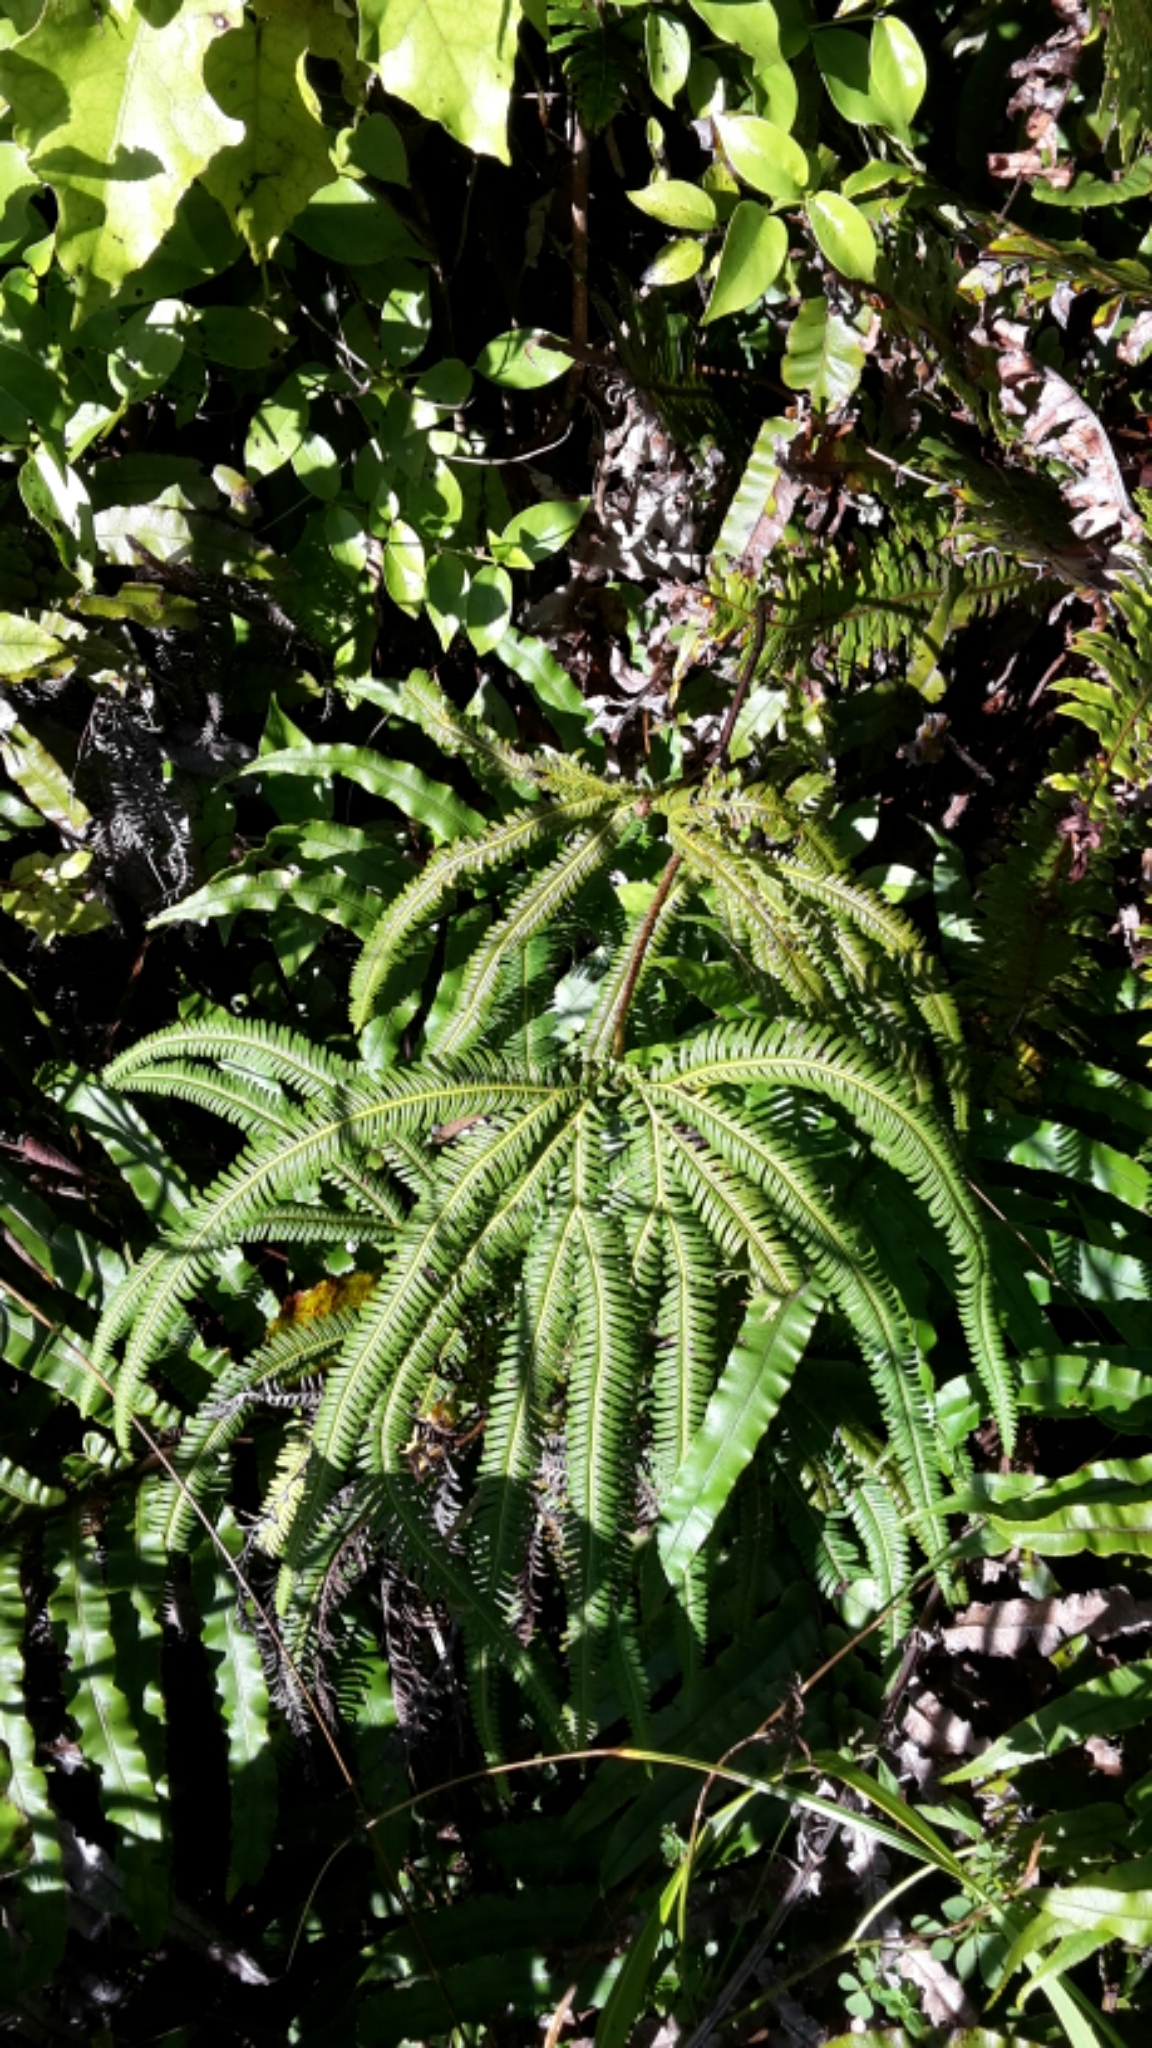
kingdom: Plantae
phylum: Tracheophyta
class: Polypodiopsida
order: Gleicheniales
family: Gleicheniaceae
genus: Sticherus
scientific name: Sticherus cunninghamii
